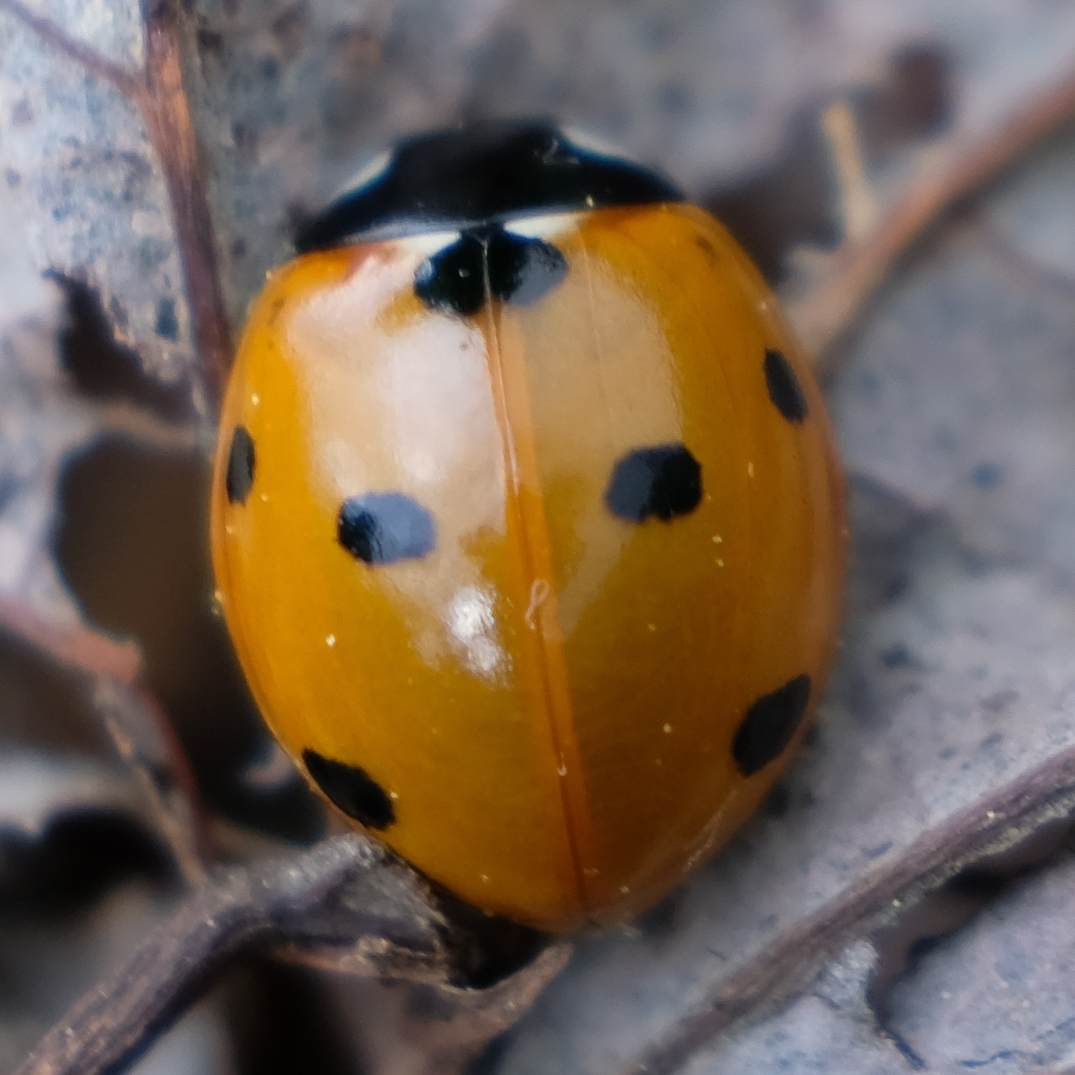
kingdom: Animalia
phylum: Arthropoda
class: Insecta
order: Coleoptera
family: Coccinellidae
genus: Coccinella
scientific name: Coccinella septempunctata
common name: Sevenspotted lady beetle
